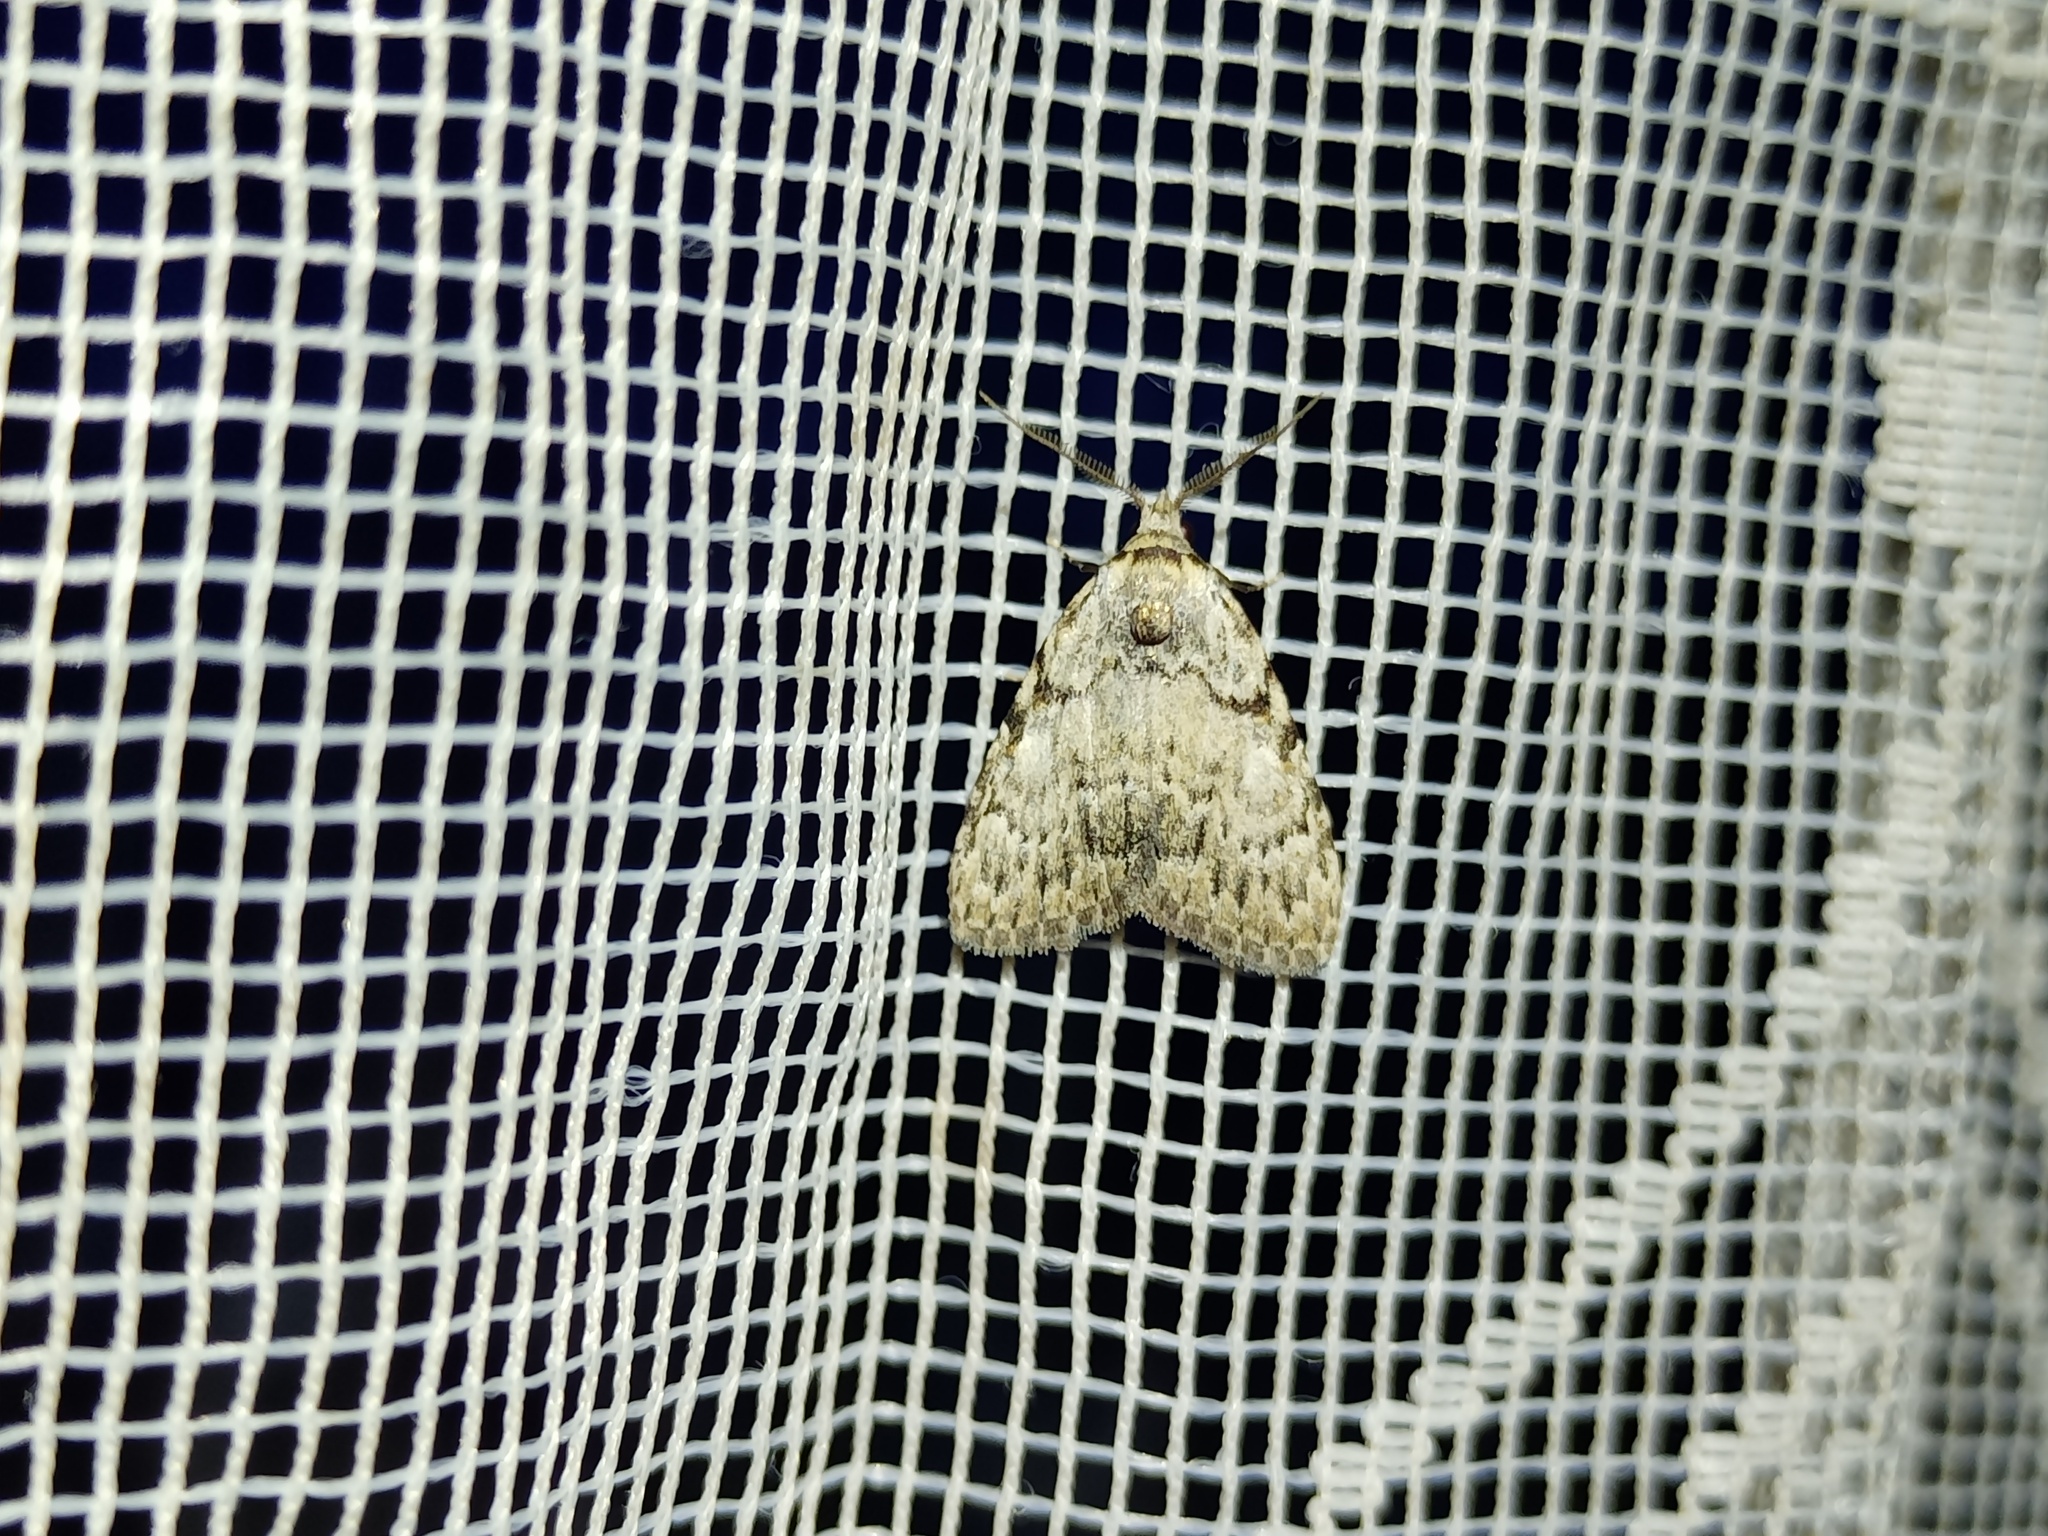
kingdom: Animalia
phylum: Arthropoda
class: Insecta
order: Lepidoptera
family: Nolidae
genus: Meganola
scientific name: Meganola strigula
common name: Small black arches
